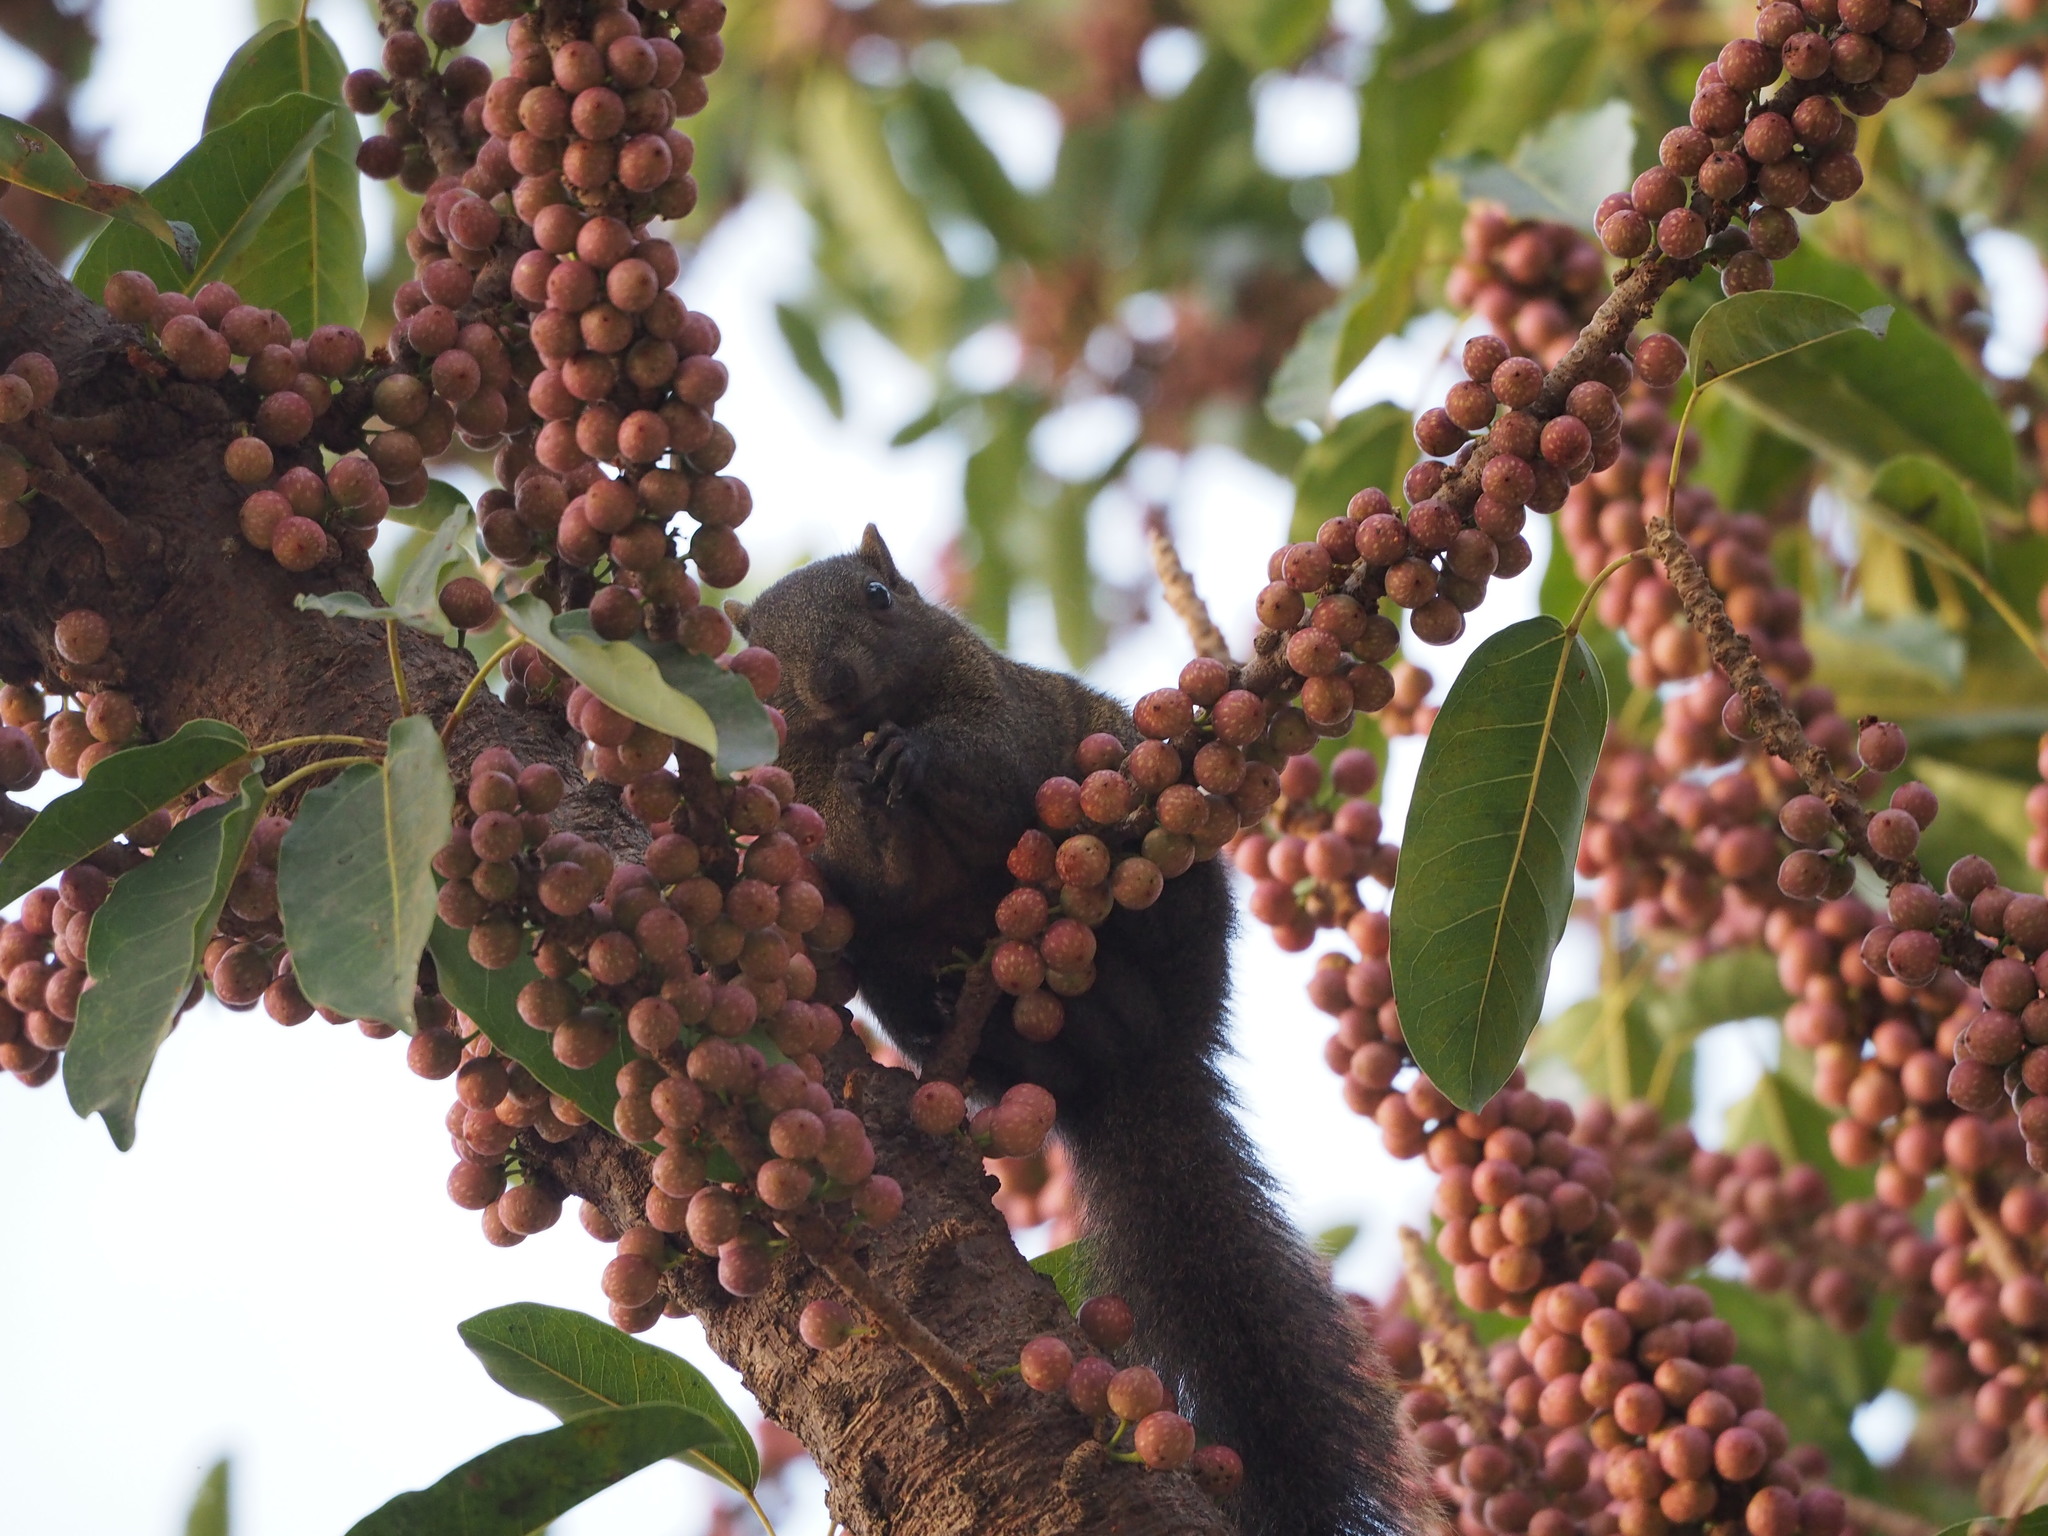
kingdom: Animalia
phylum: Chordata
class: Mammalia
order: Rodentia
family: Sciuridae
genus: Callosciurus
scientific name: Callosciurus erythraeus
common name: Pallas's squirrel
